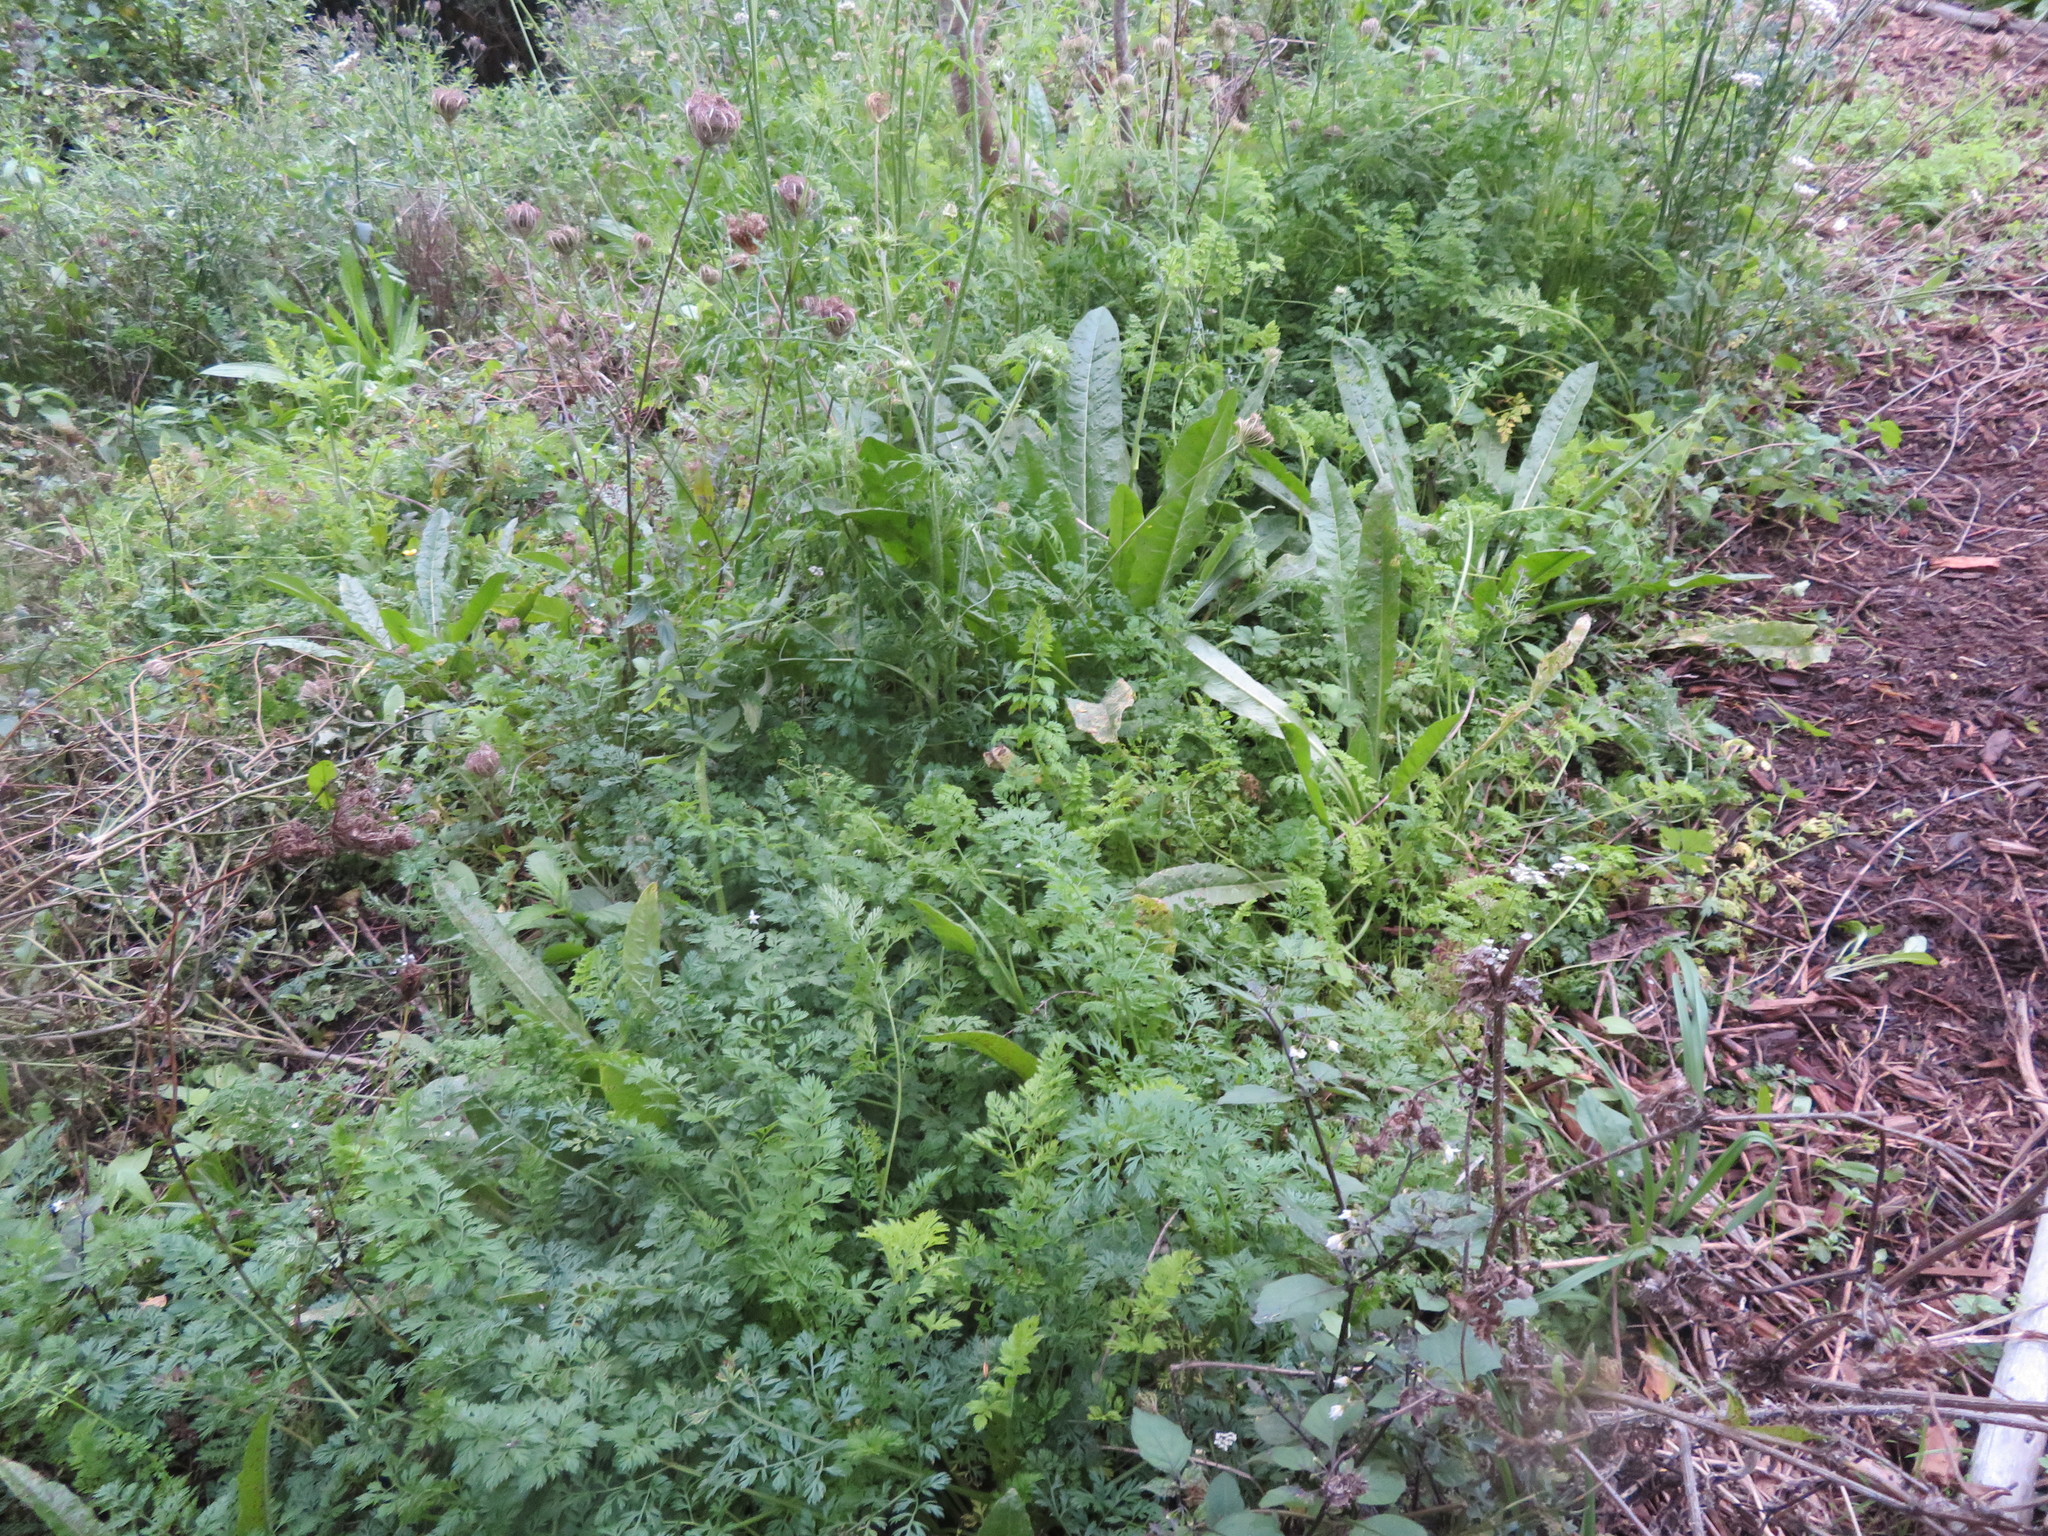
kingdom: Plantae
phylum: Tracheophyta
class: Magnoliopsida
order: Asterales
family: Asteraceae
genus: Helminthotheca
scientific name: Helminthotheca echioides
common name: Ox-tongue
